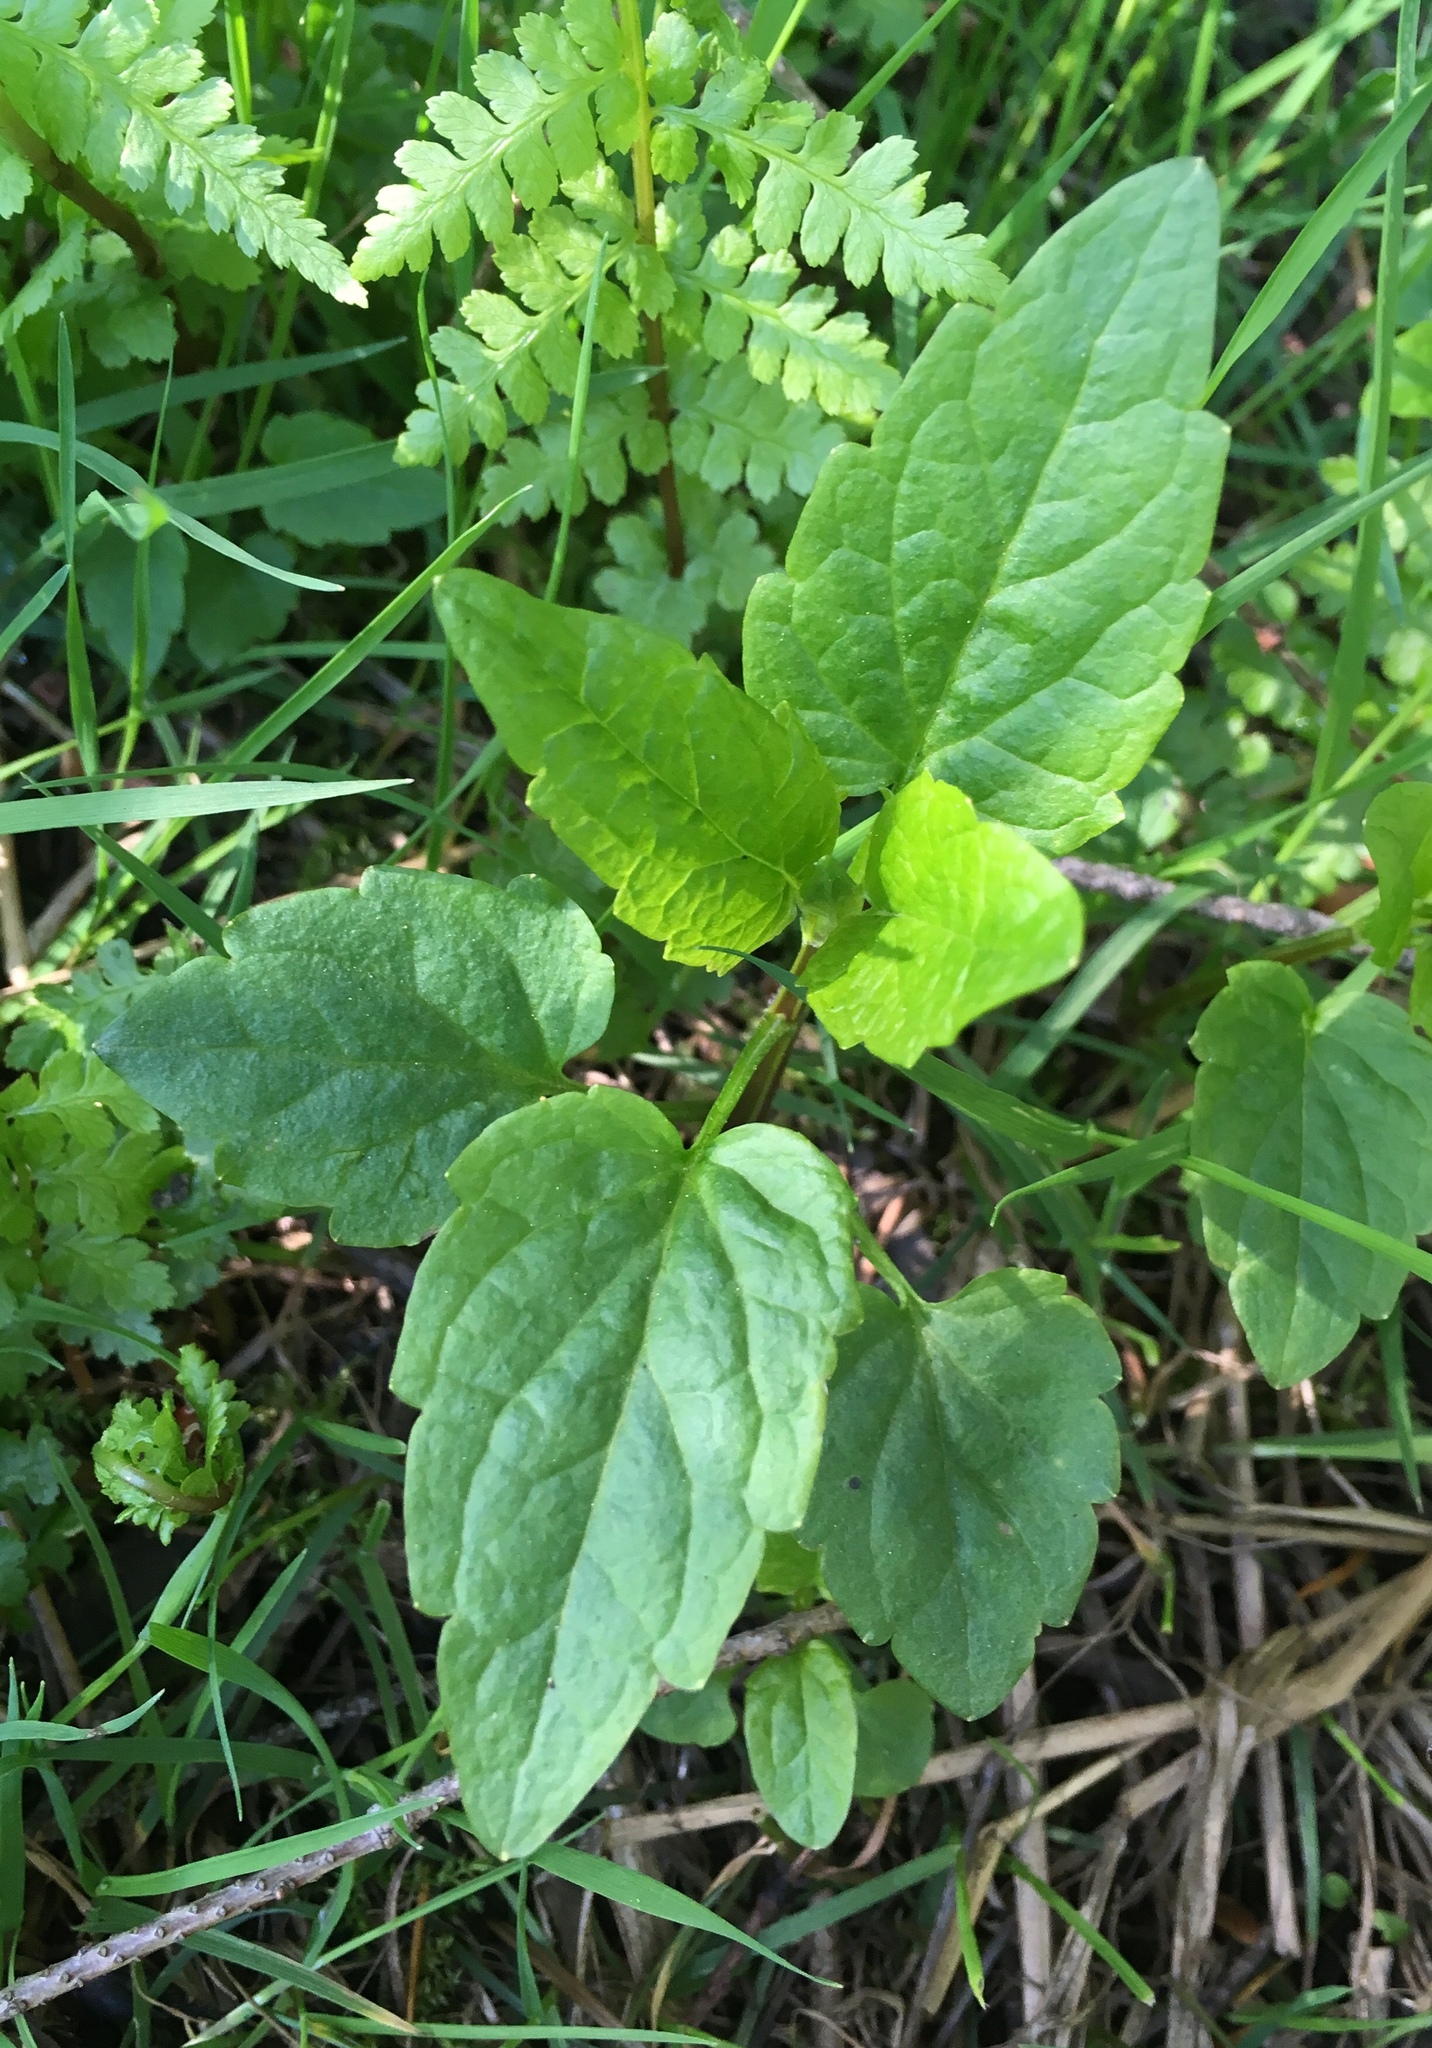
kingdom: Plantae
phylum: Tracheophyta
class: Magnoliopsida
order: Lamiales
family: Lamiaceae
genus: Scutellaria
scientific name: Scutellaria lateriflora
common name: Blue skullcap
